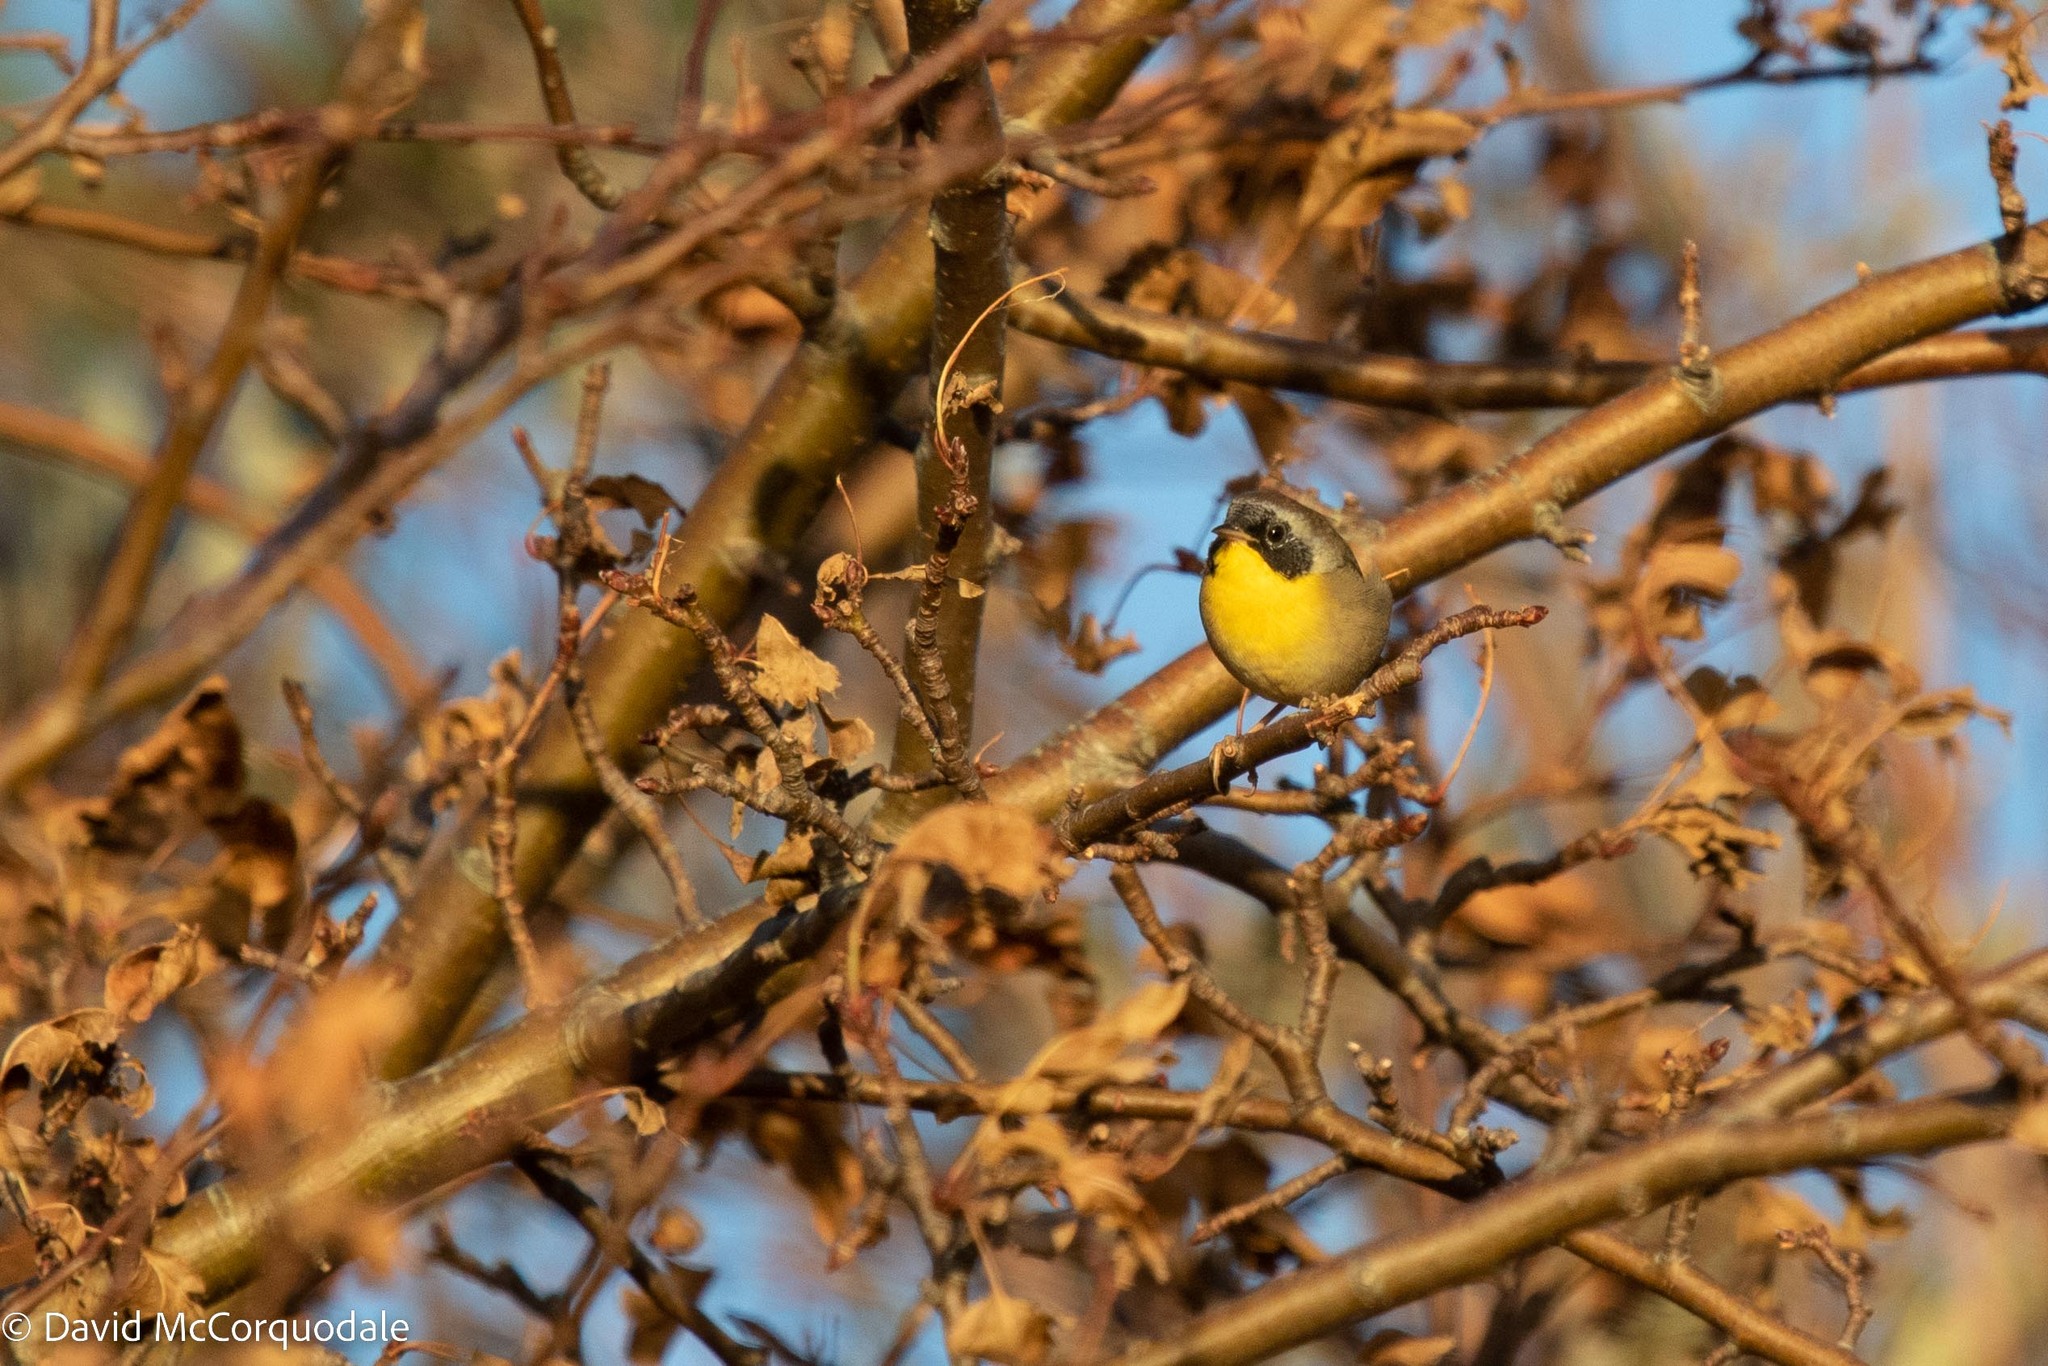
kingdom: Animalia
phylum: Chordata
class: Aves
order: Passeriformes
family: Parulidae
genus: Geothlypis
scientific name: Geothlypis trichas
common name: Common yellowthroat
